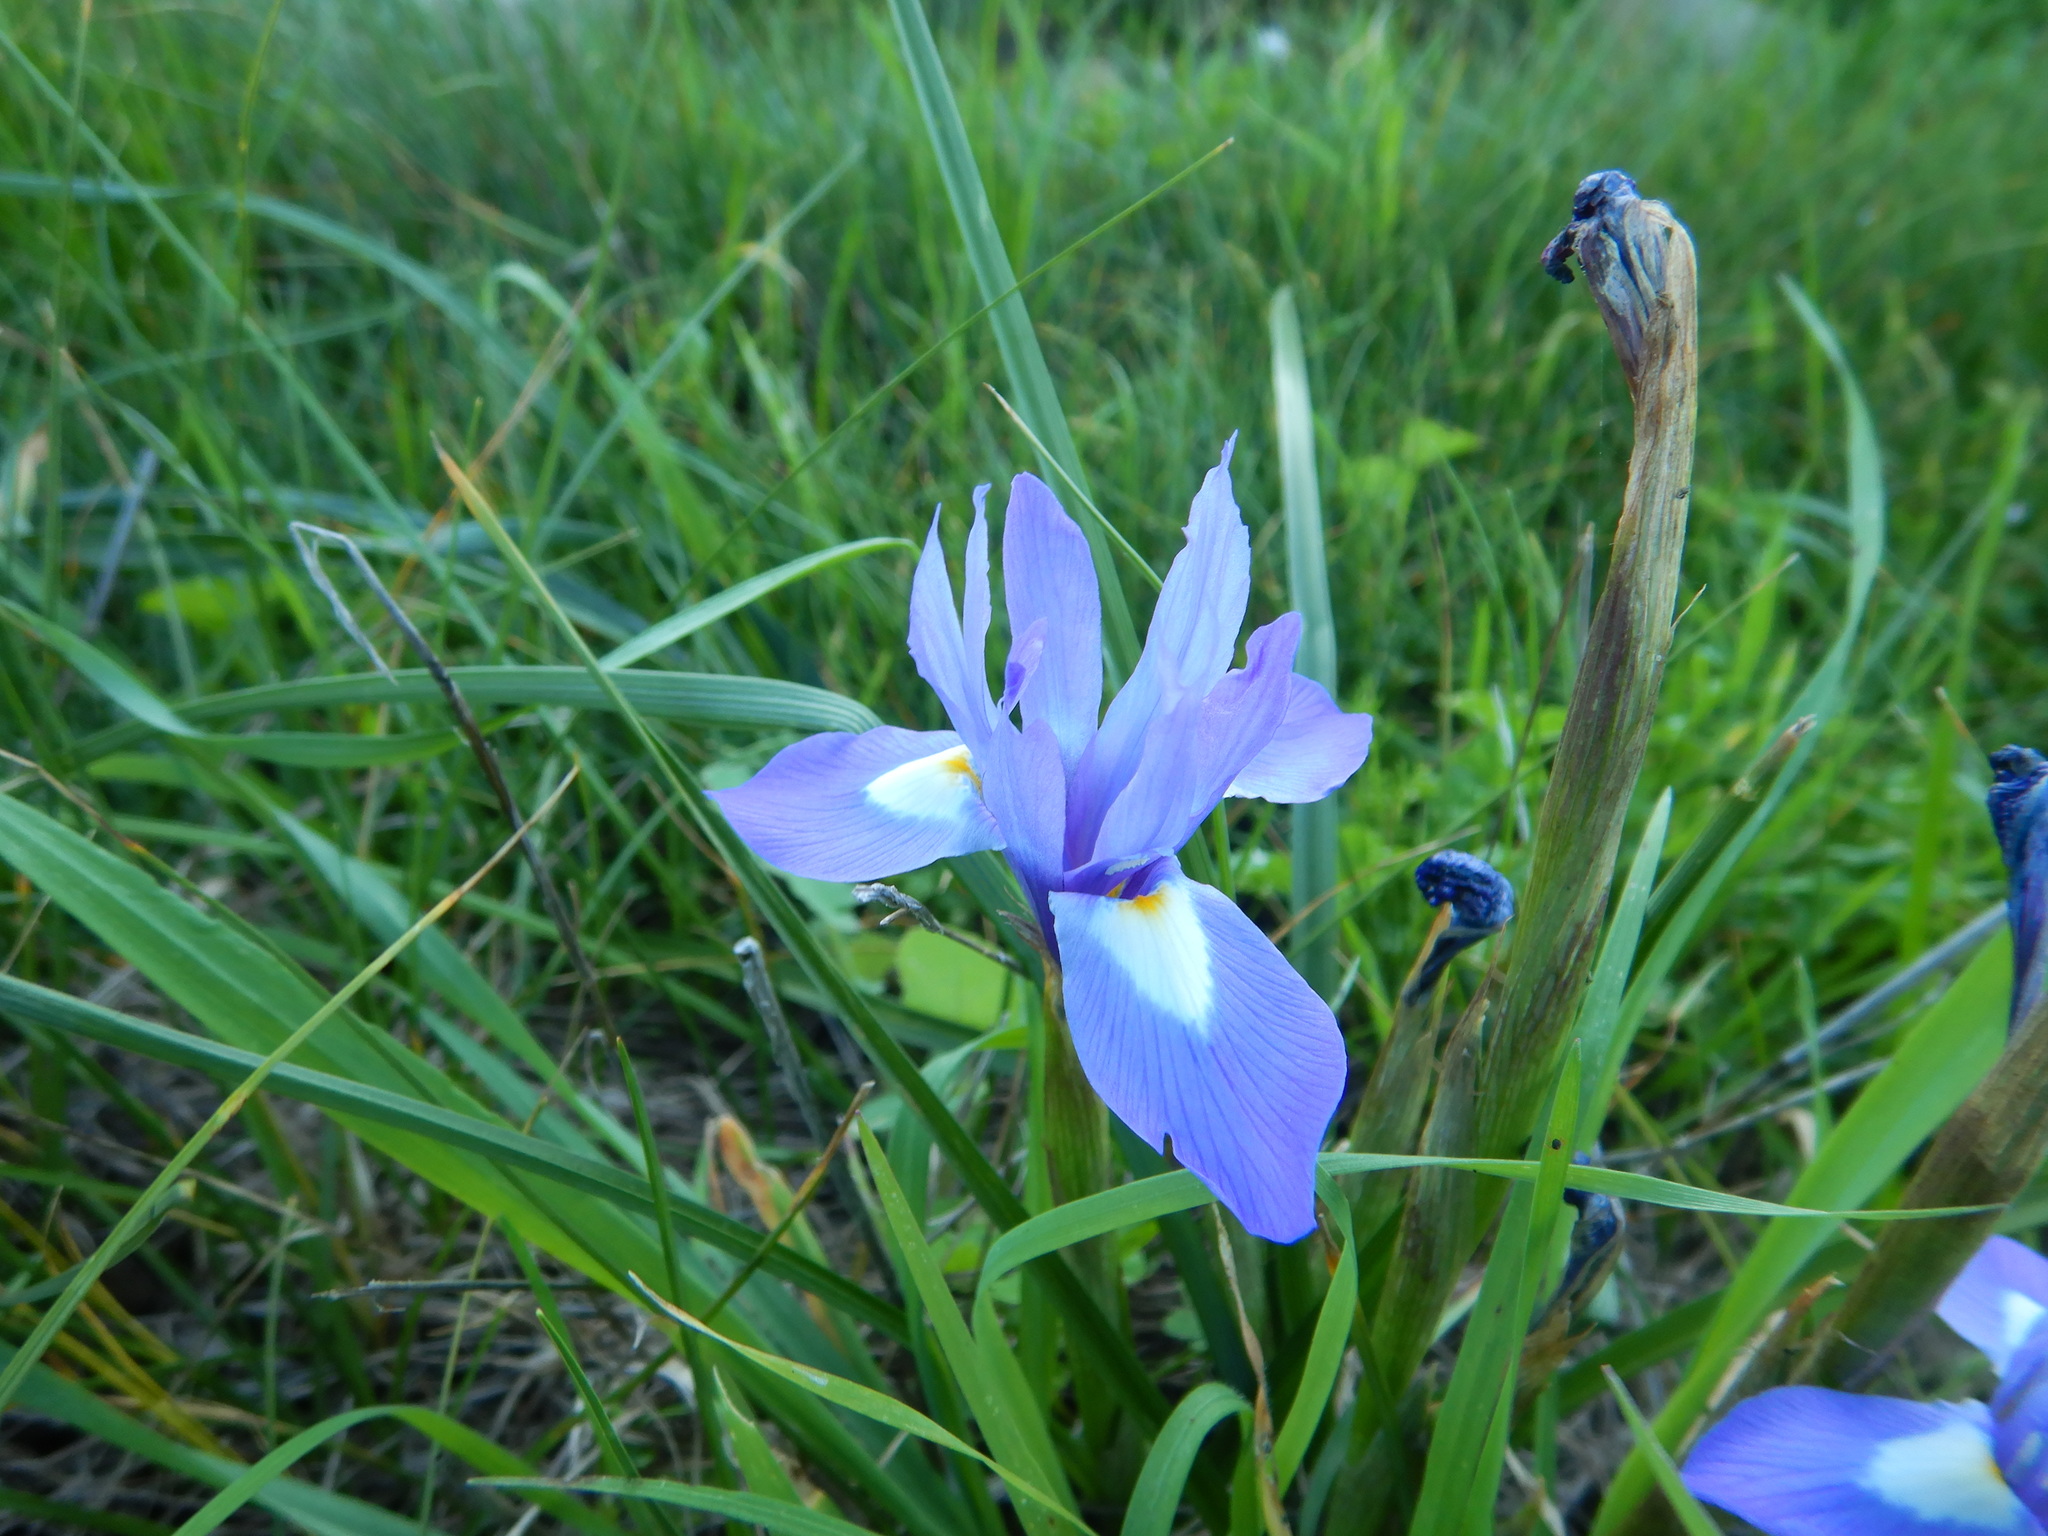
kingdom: Plantae
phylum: Tracheophyta
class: Liliopsida
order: Asparagales
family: Iridaceae
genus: Moraea
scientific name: Moraea sisyrinchium
